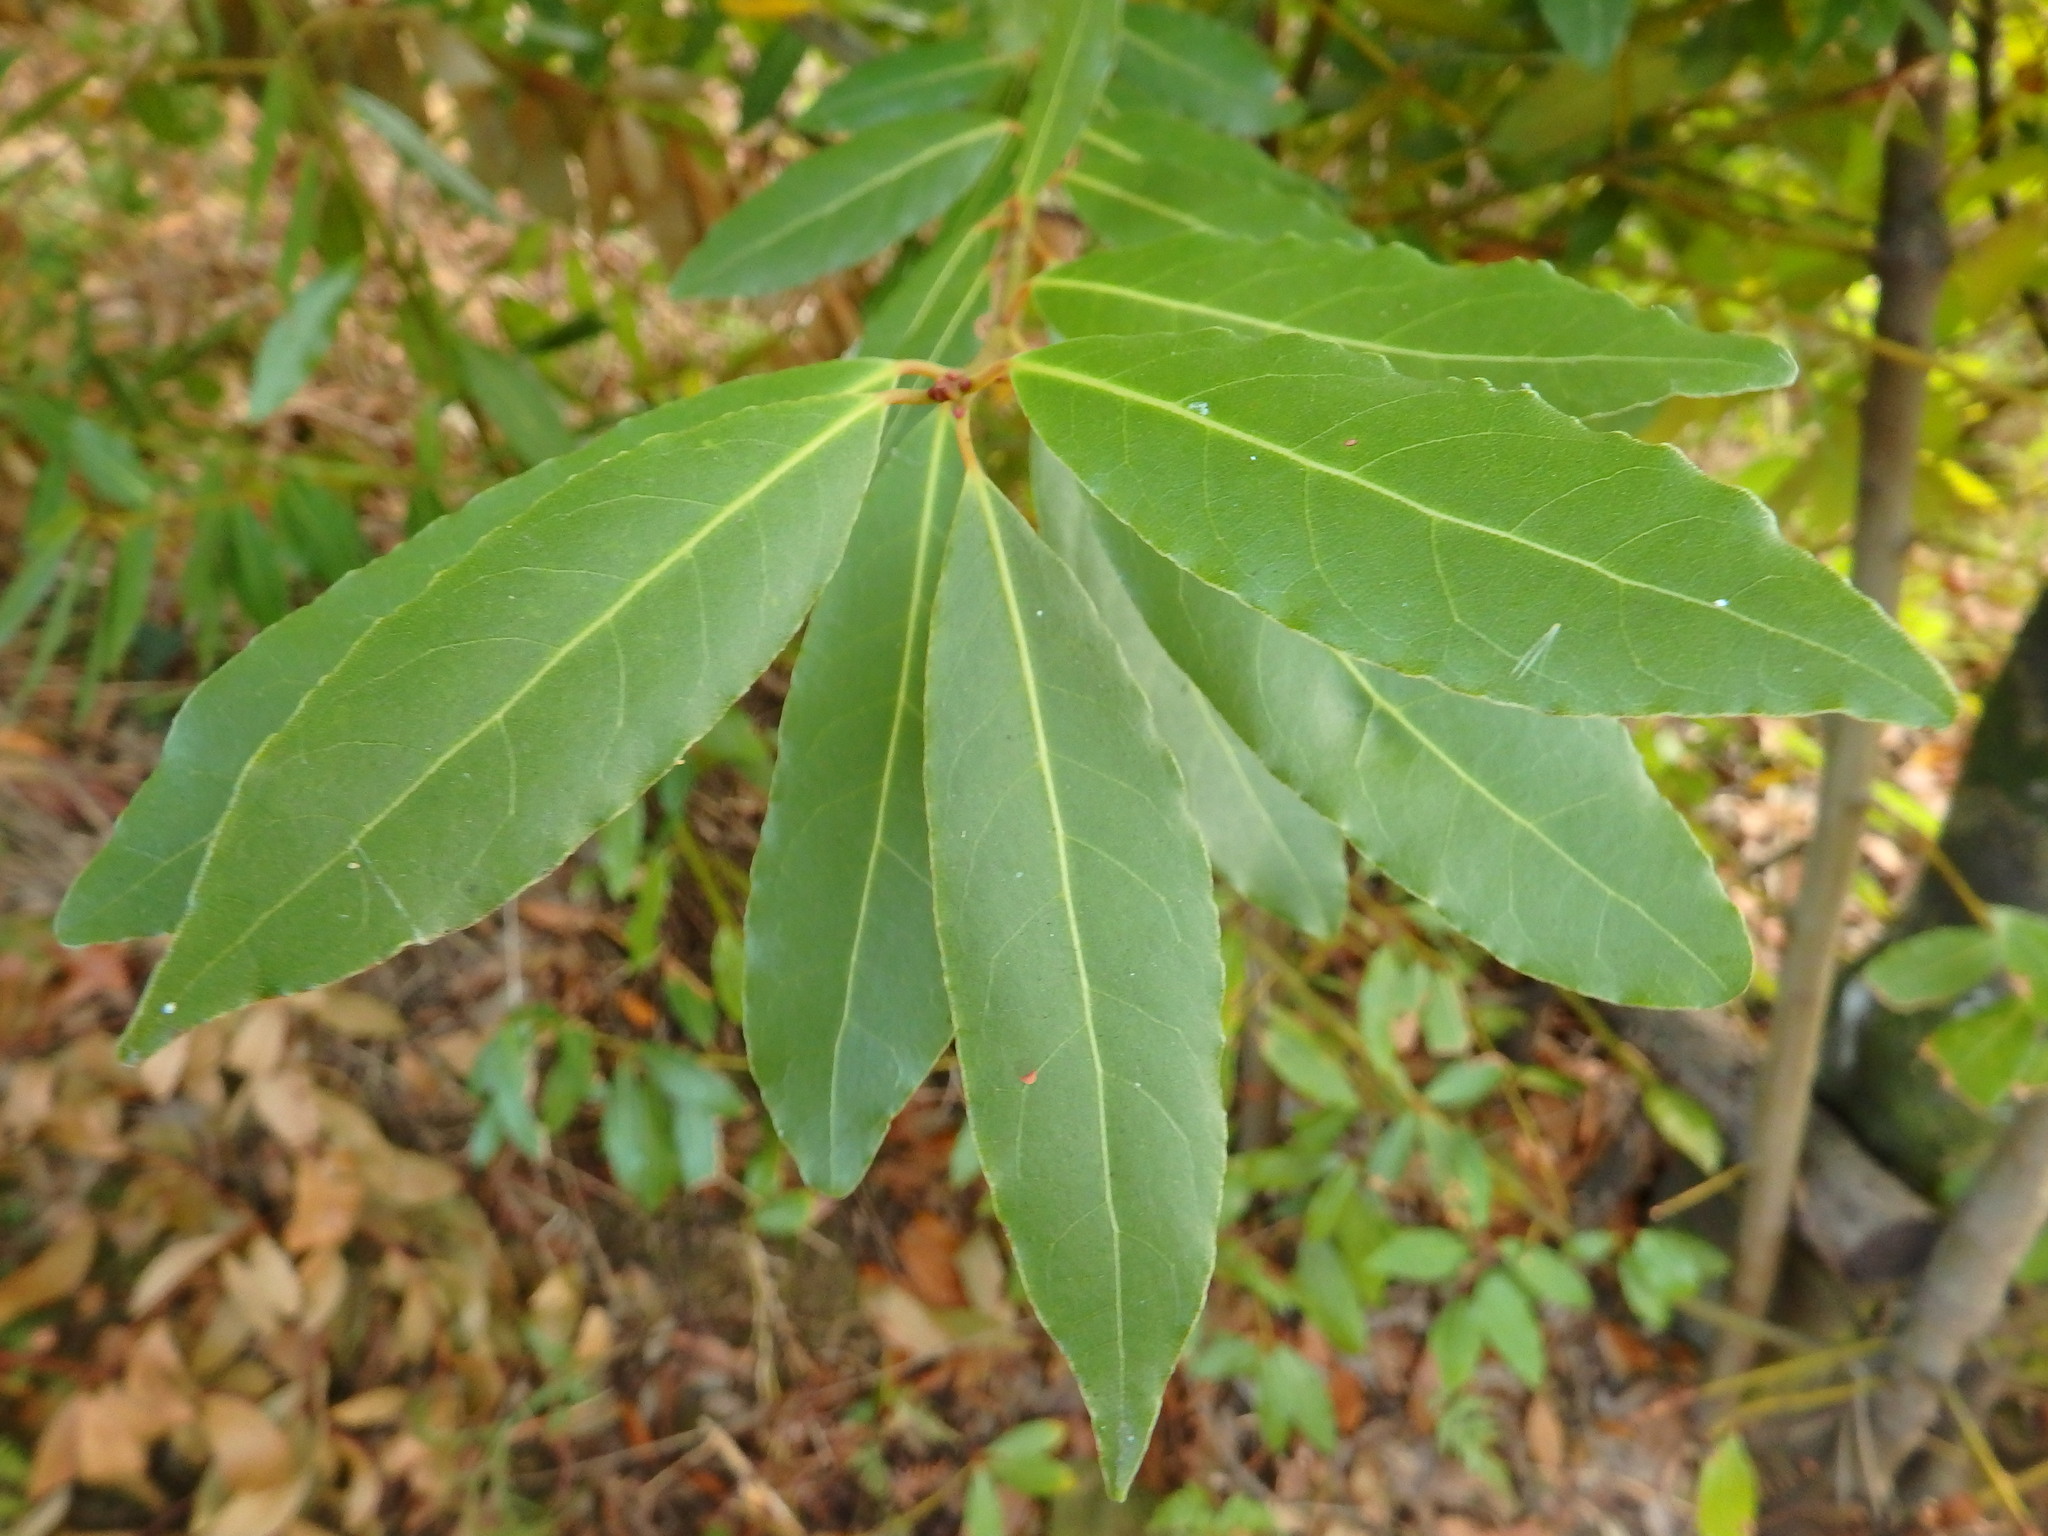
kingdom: Plantae
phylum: Tracheophyta
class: Magnoliopsida
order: Laurales
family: Lauraceae
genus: Laurus
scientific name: Laurus nobilis
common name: Bay
